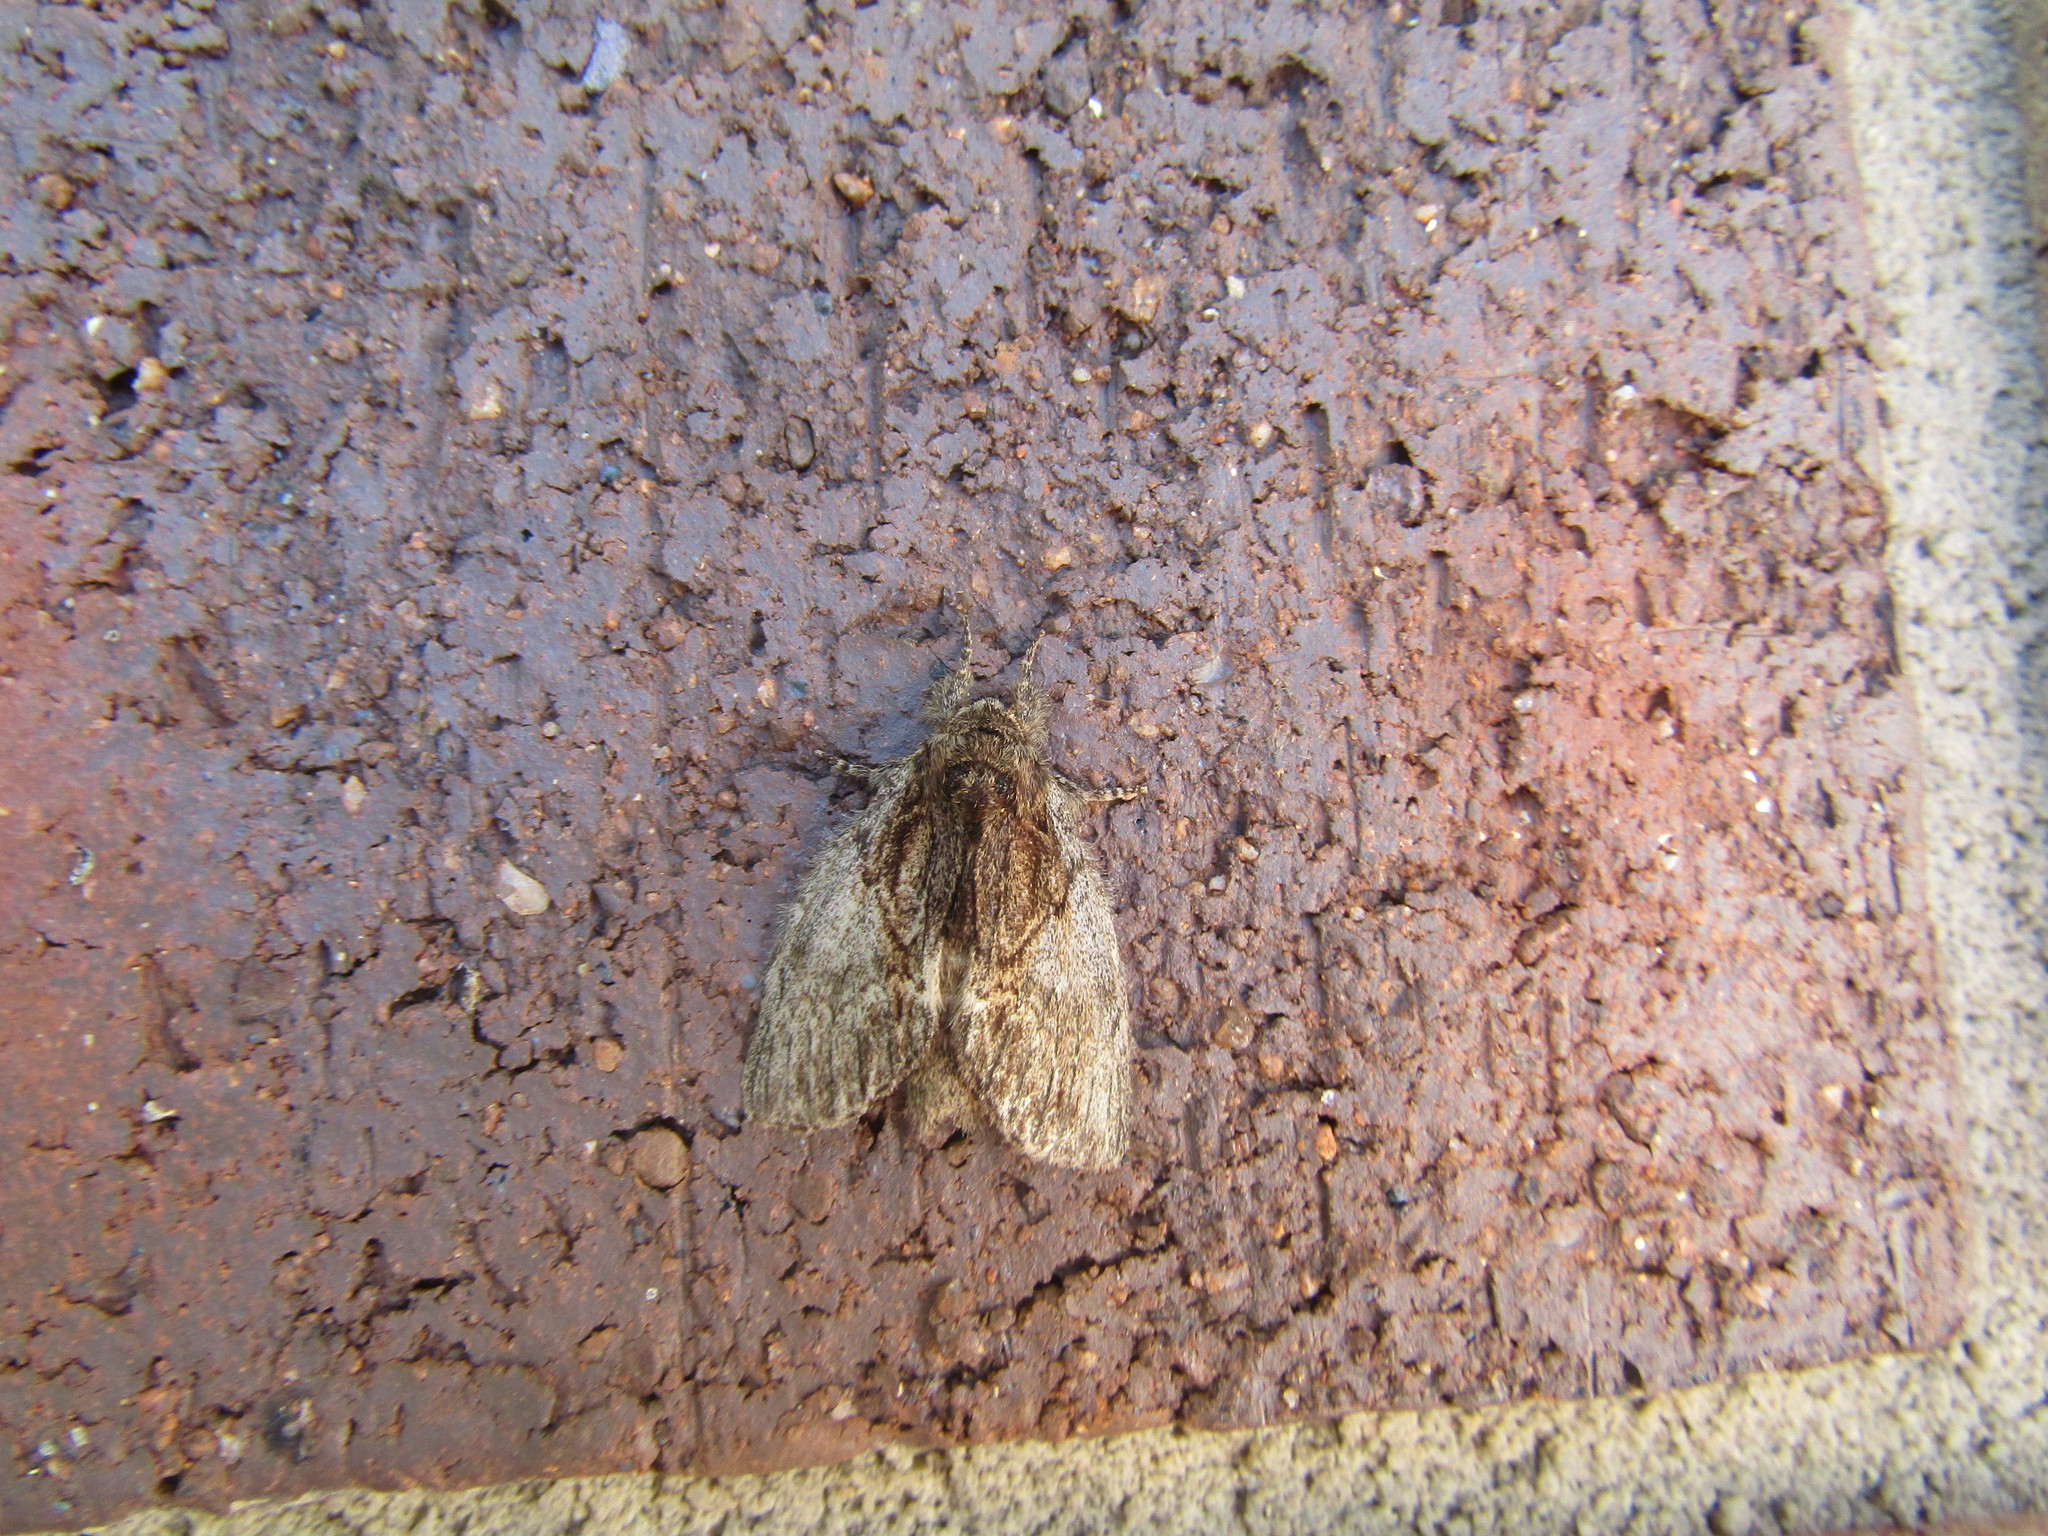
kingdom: Animalia
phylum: Arthropoda
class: Insecta
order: Lepidoptera
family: Notodontidae
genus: Peridea
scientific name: Peridea basitriens
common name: Oval-based prominent
